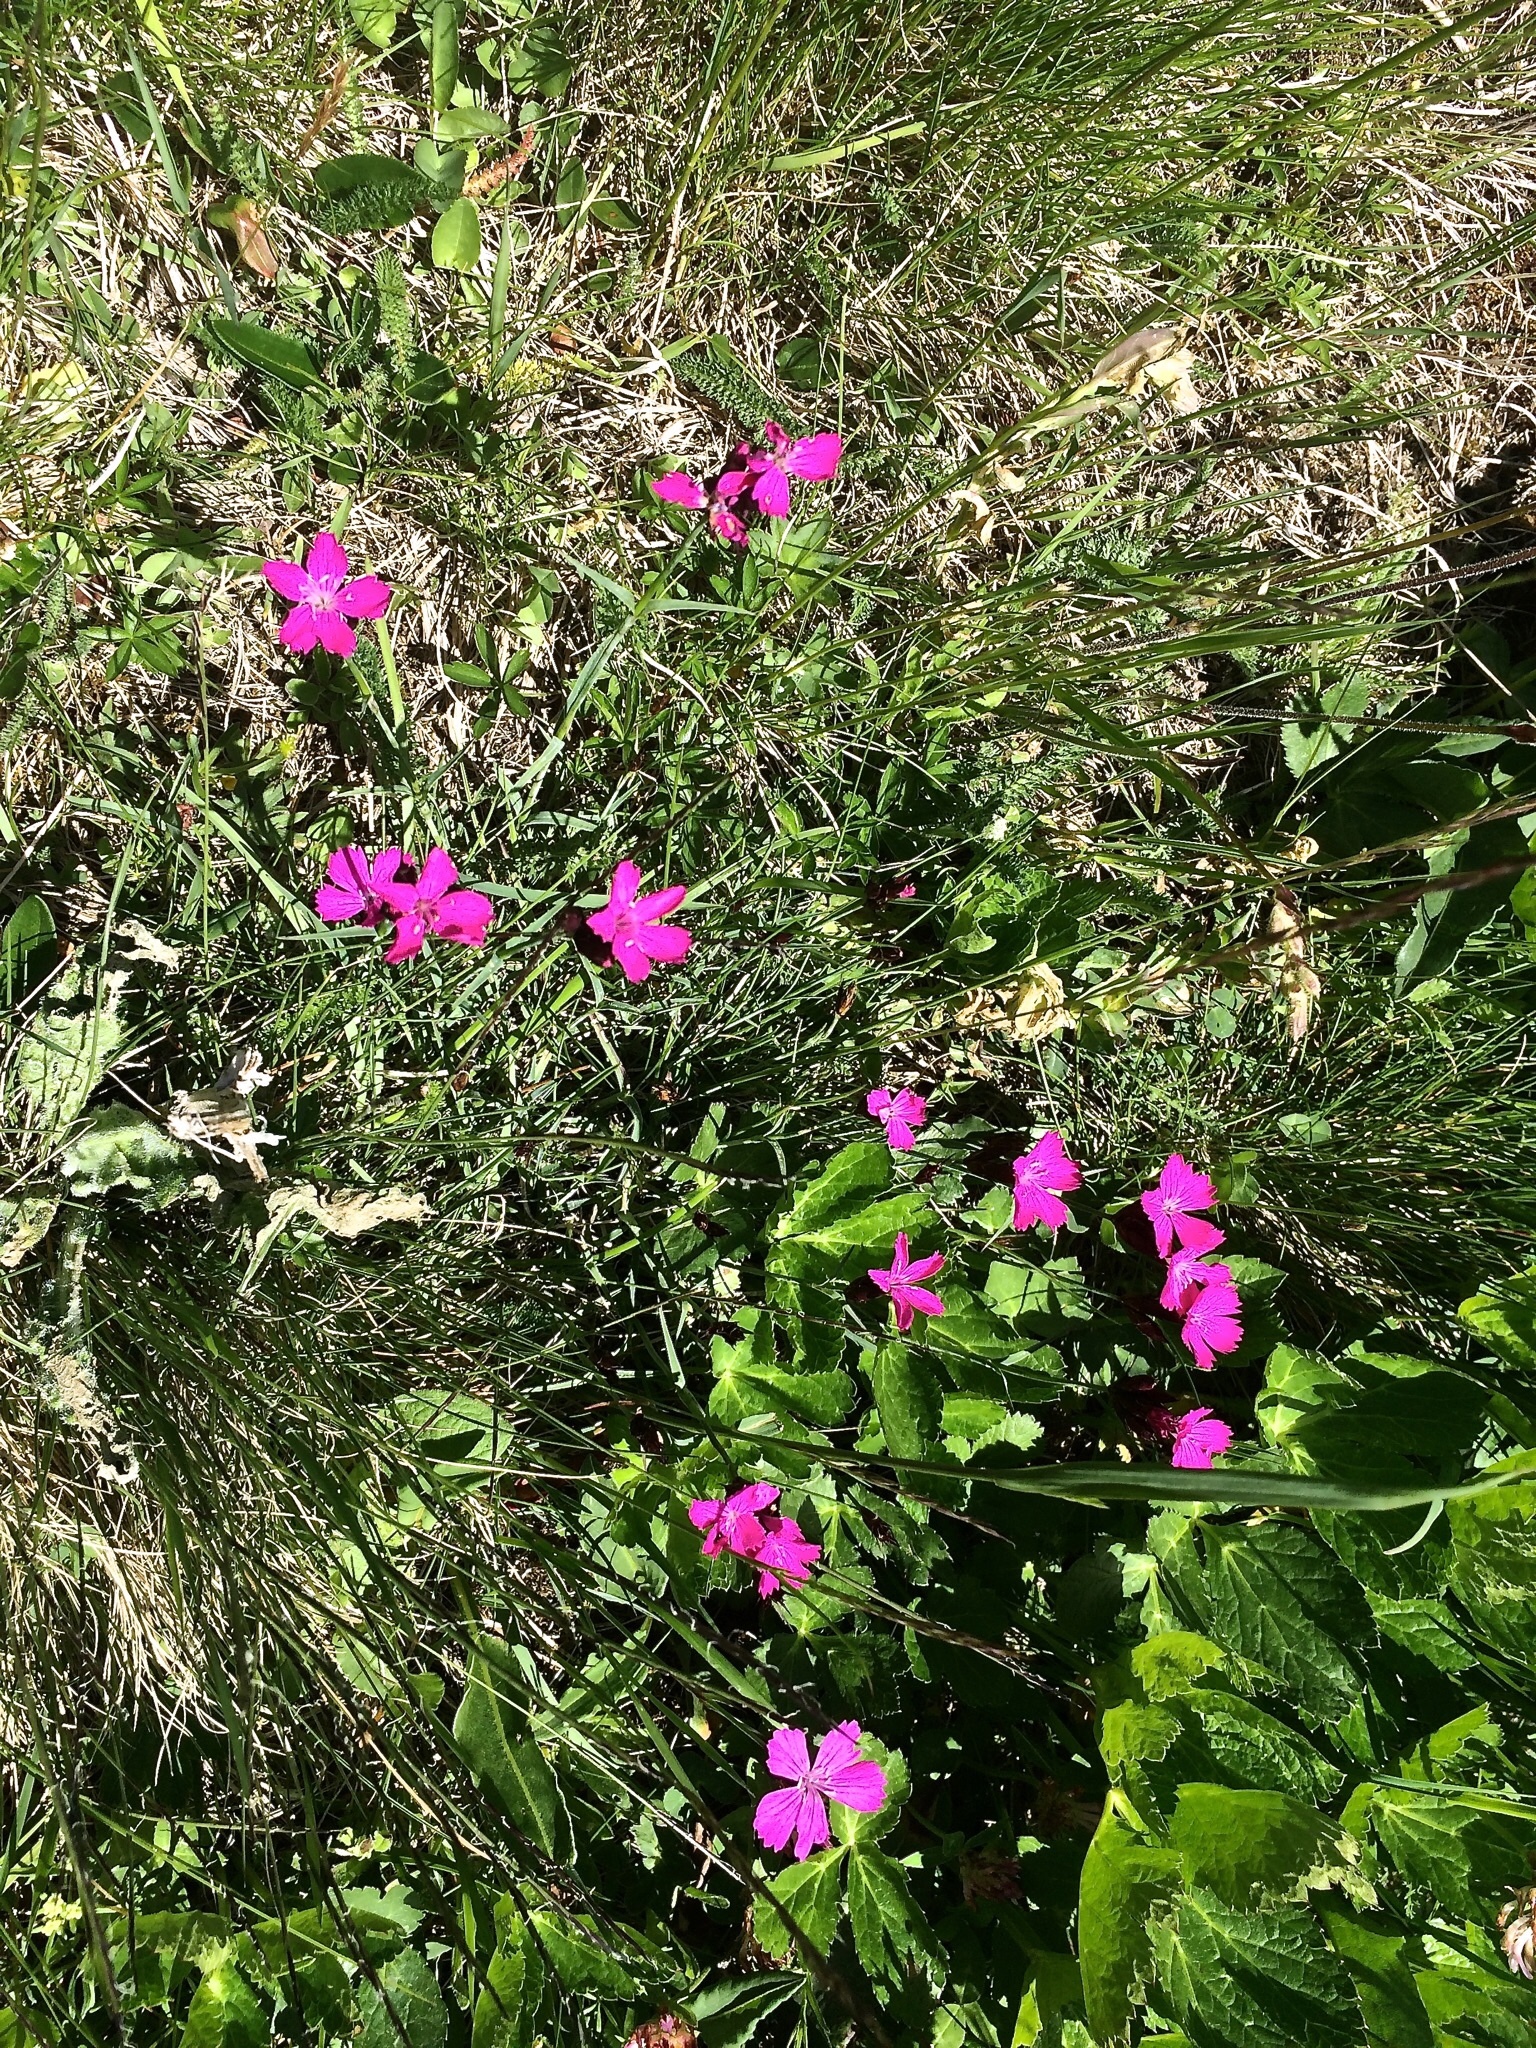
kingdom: Plantae
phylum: Tracheophyta
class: Magnoliopsida
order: Caryophyllales
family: Caryophyllaceae
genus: Dianthus
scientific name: Dianthus carthusianorum
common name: Carthusian pink
